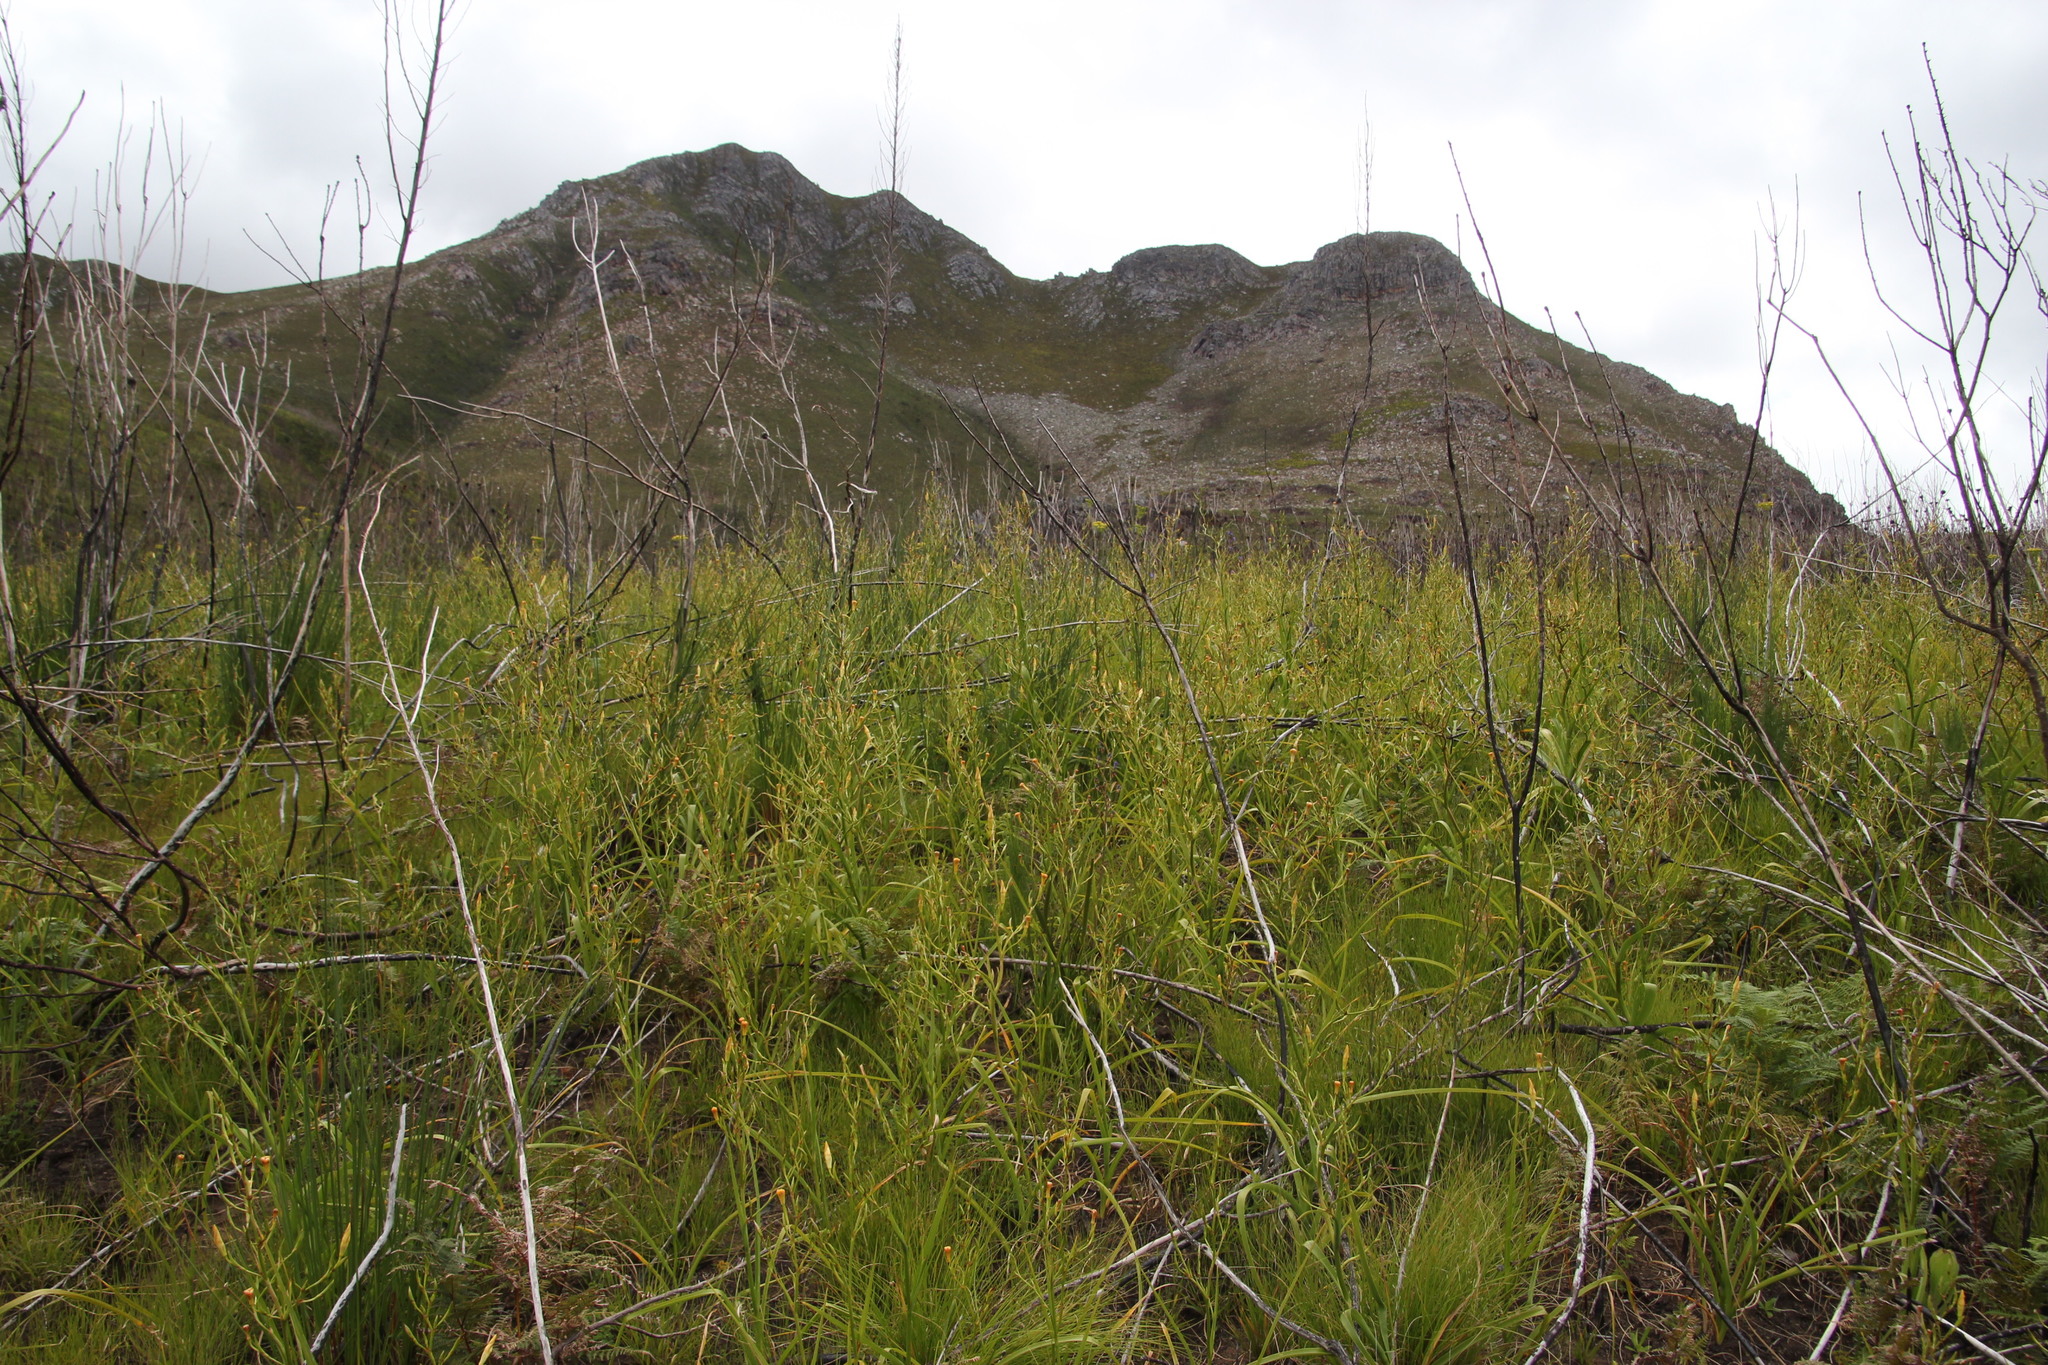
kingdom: Plantae
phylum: Tracheophyta
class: Liliopsida
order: Asparagales
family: Iridaceae
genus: Moraea
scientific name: Moraea ramosissima
